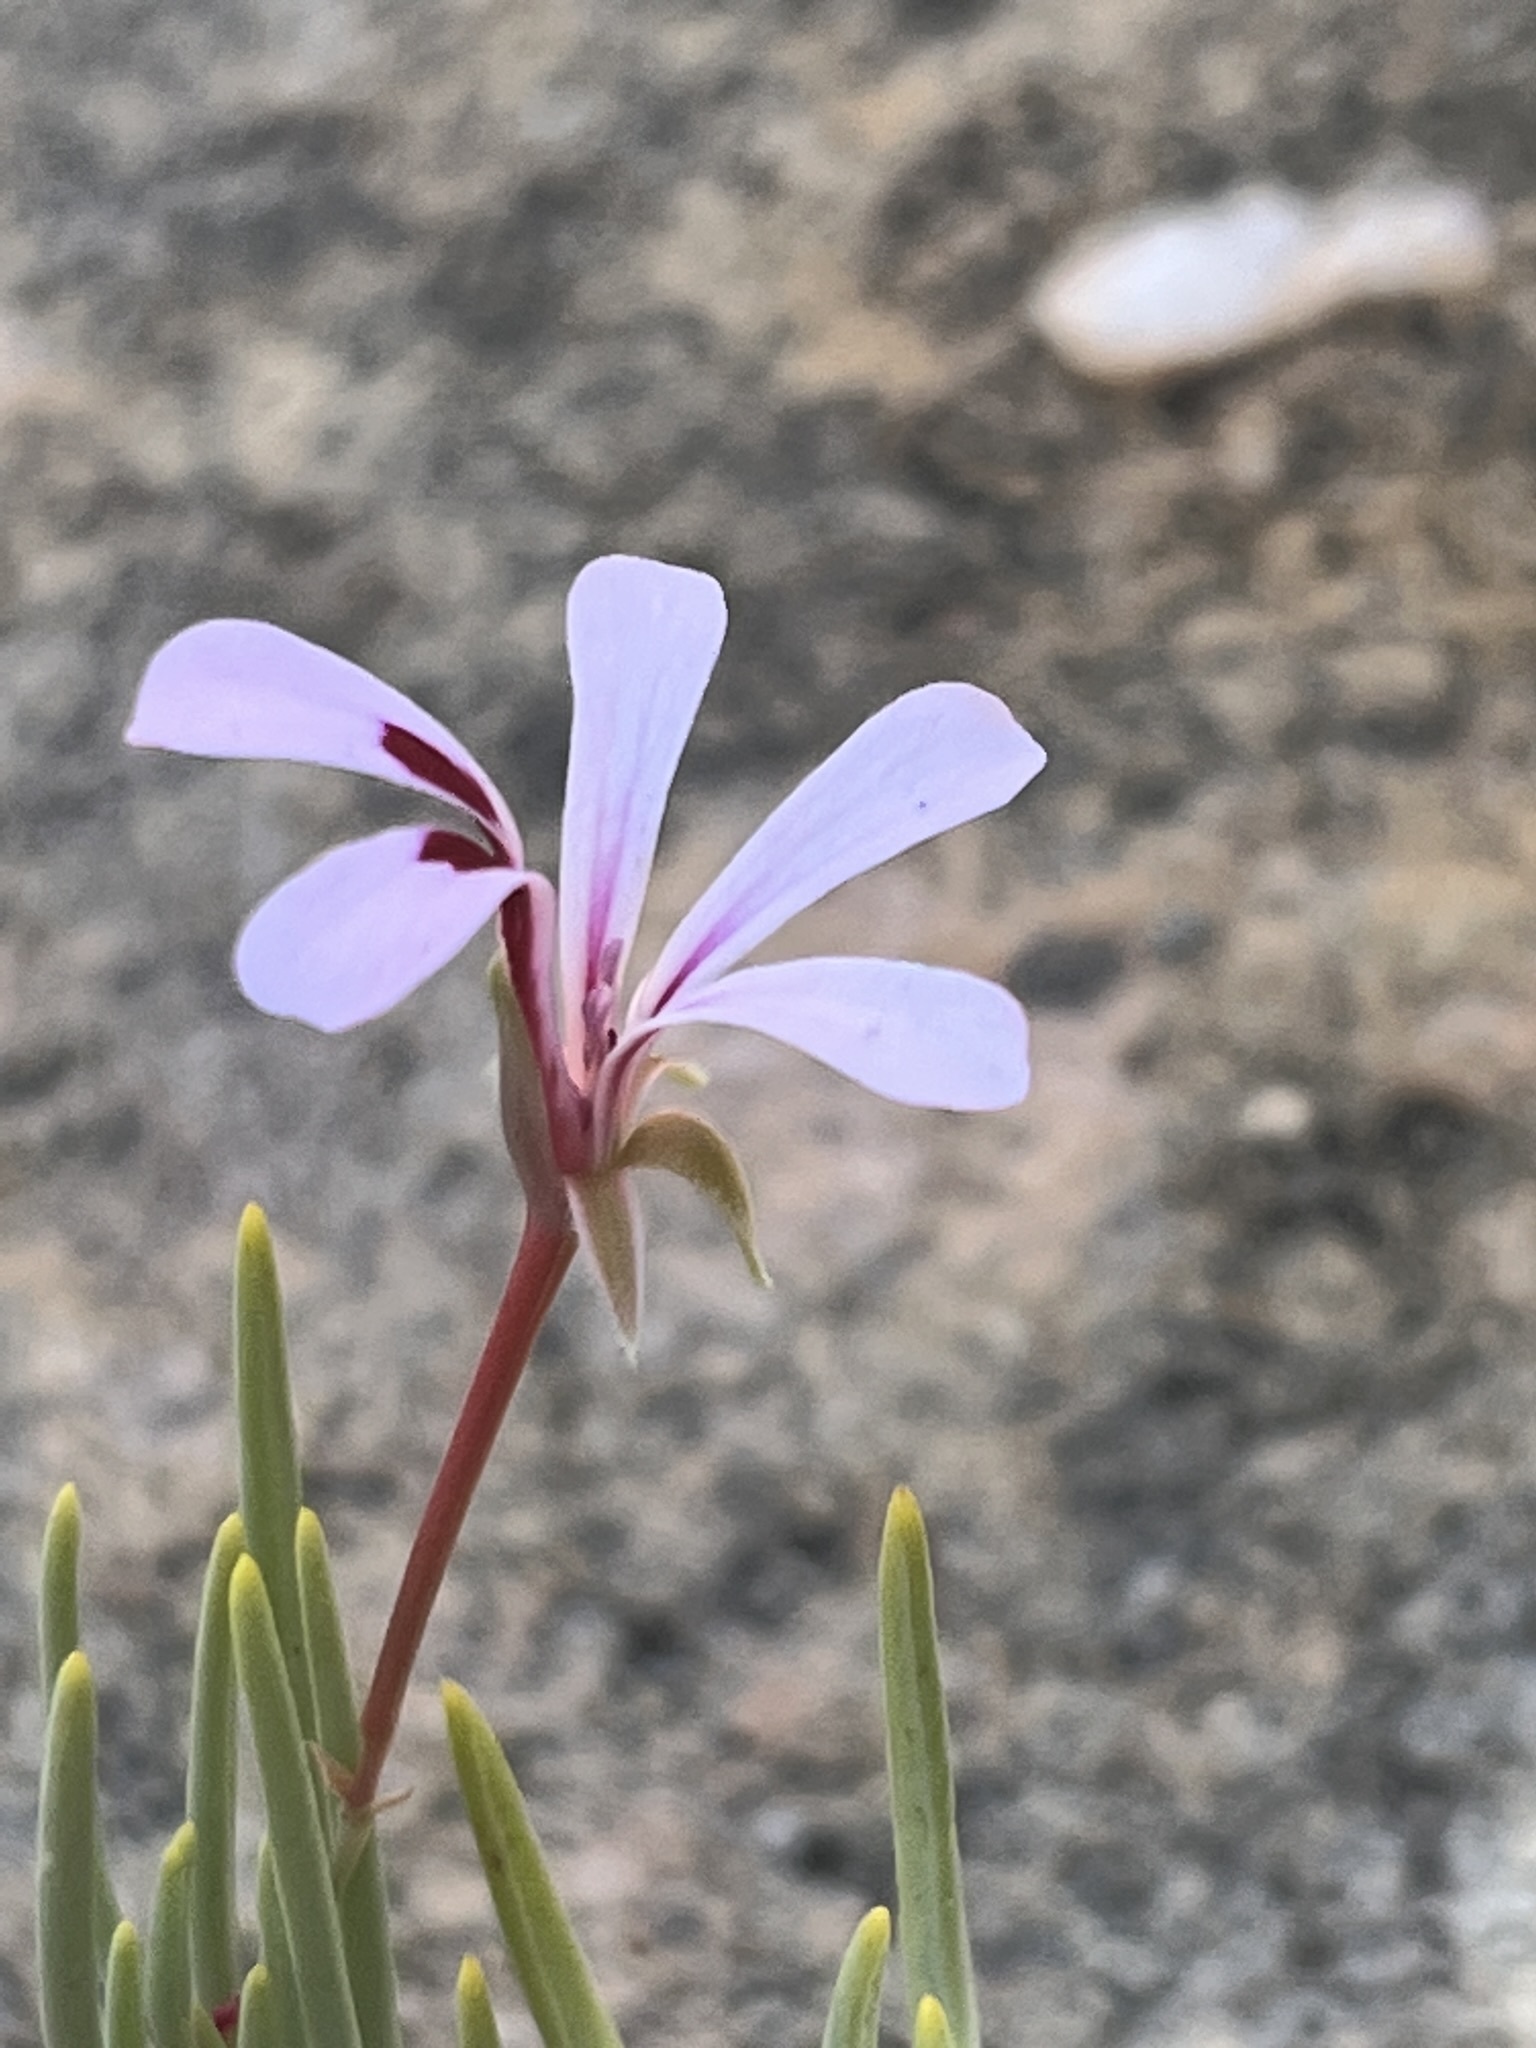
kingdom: Plantae
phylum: Tracheophyta
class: Magnoliopsida
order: Geraniales
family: Geraniaceae
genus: Pelargonium
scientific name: Pelargonium laevigatum
